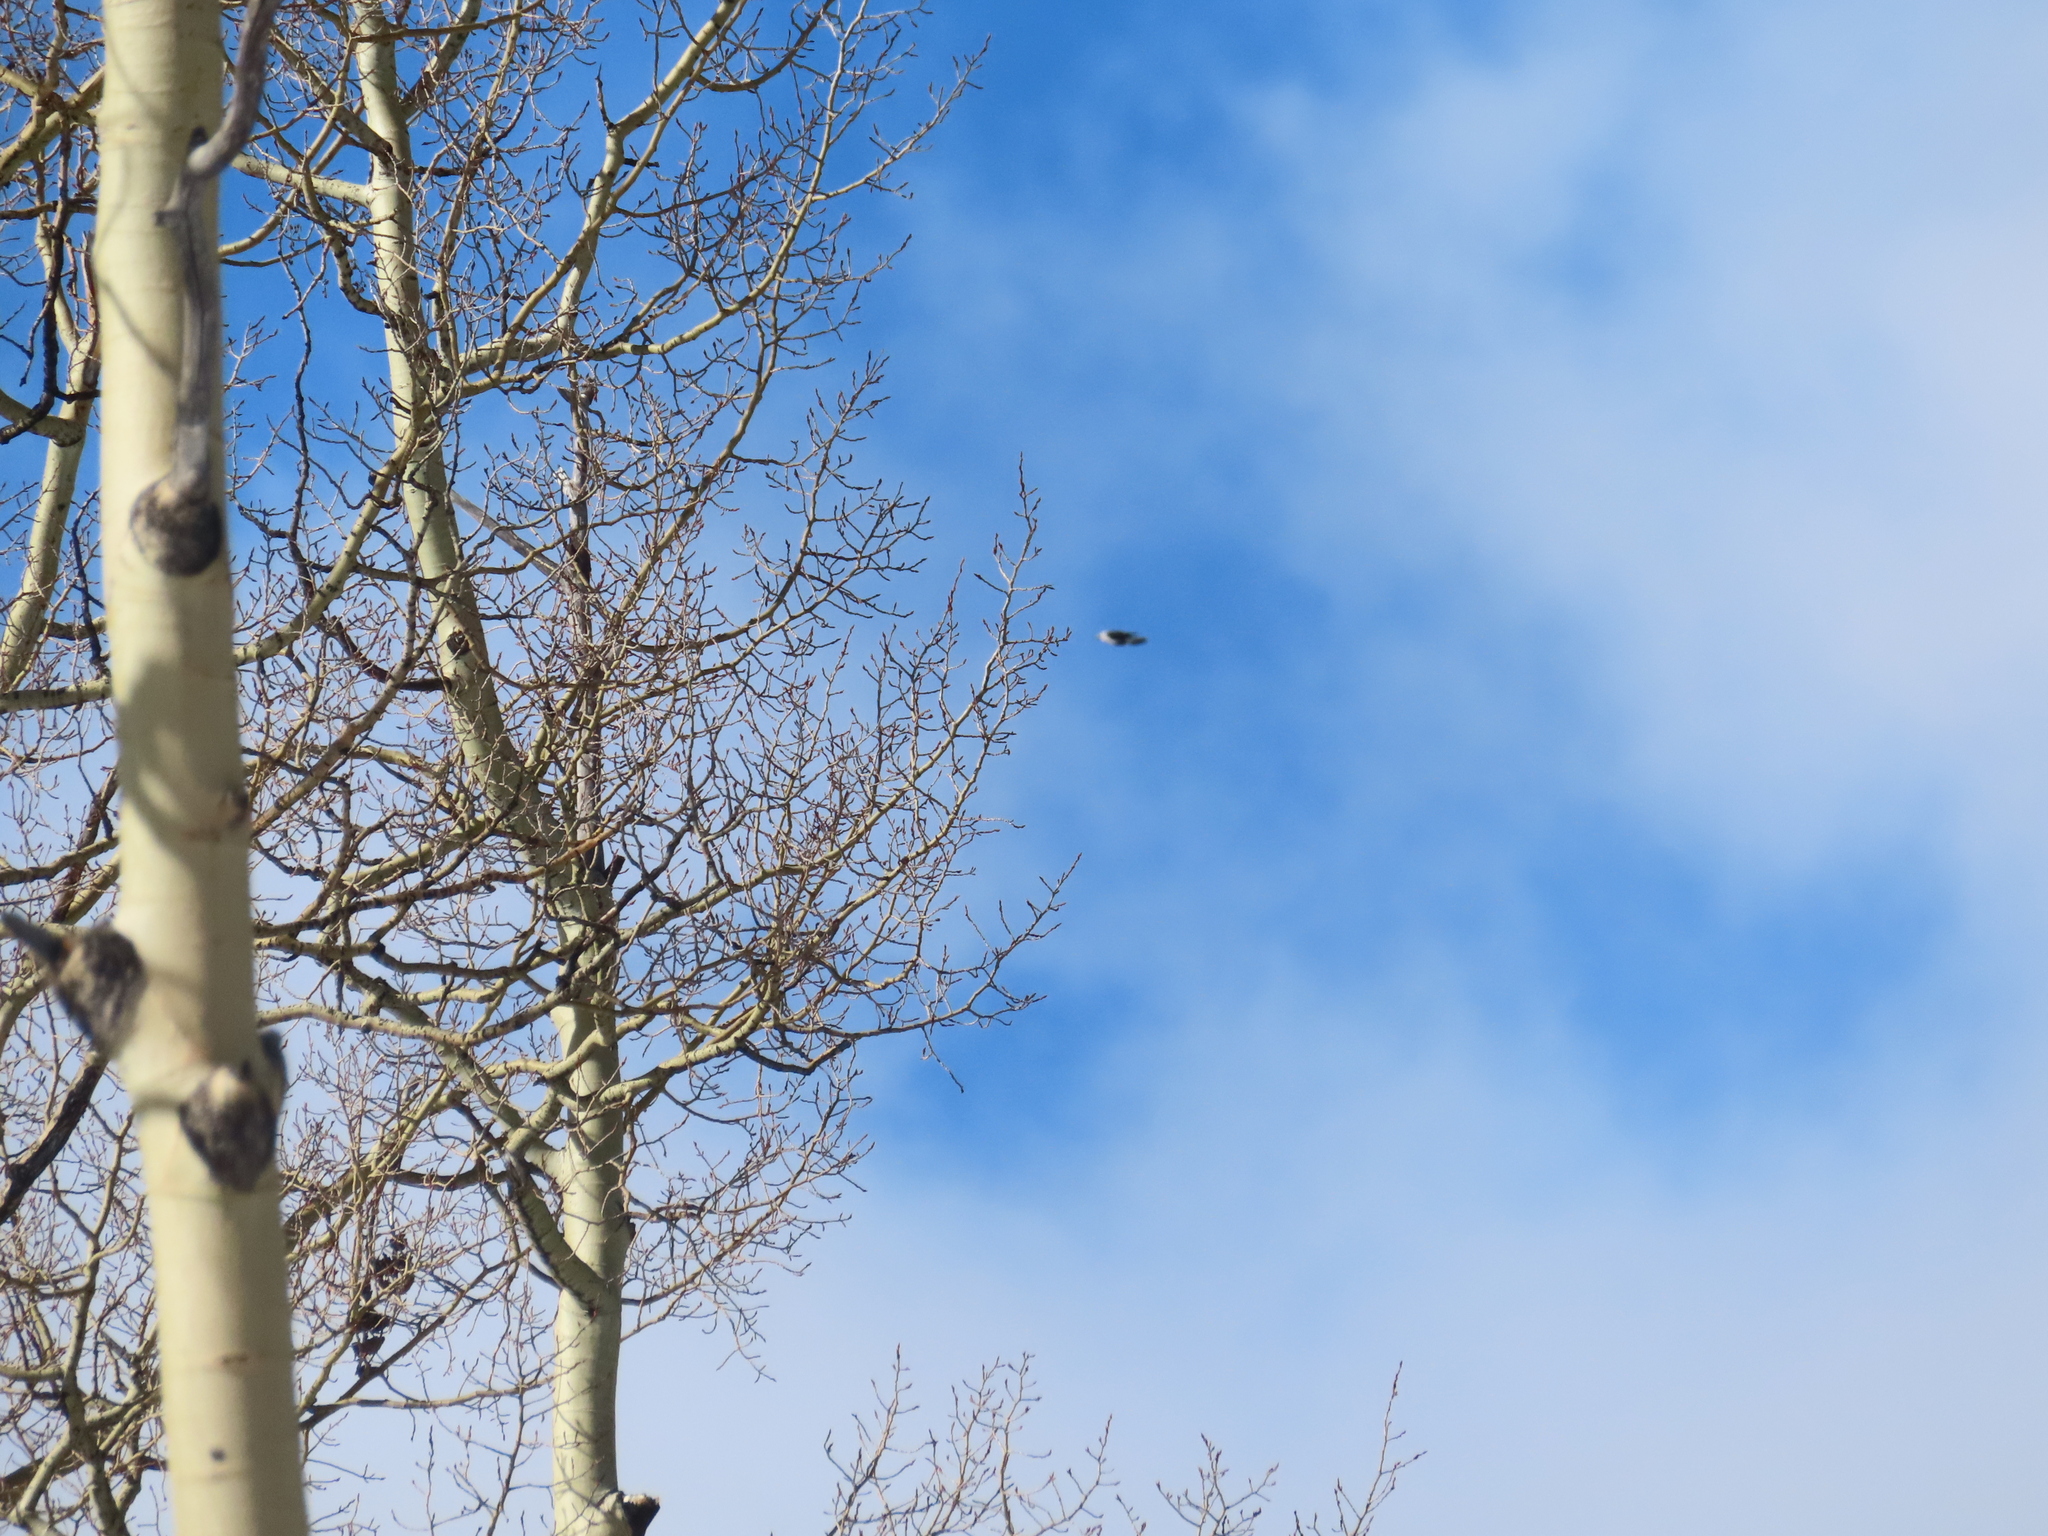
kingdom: Plantae
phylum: Tracheophyta
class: Magnoliopsida
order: Malpighiales
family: Salicaceae
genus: Populus
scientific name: Populus tremuloides
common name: Quaking aspen
